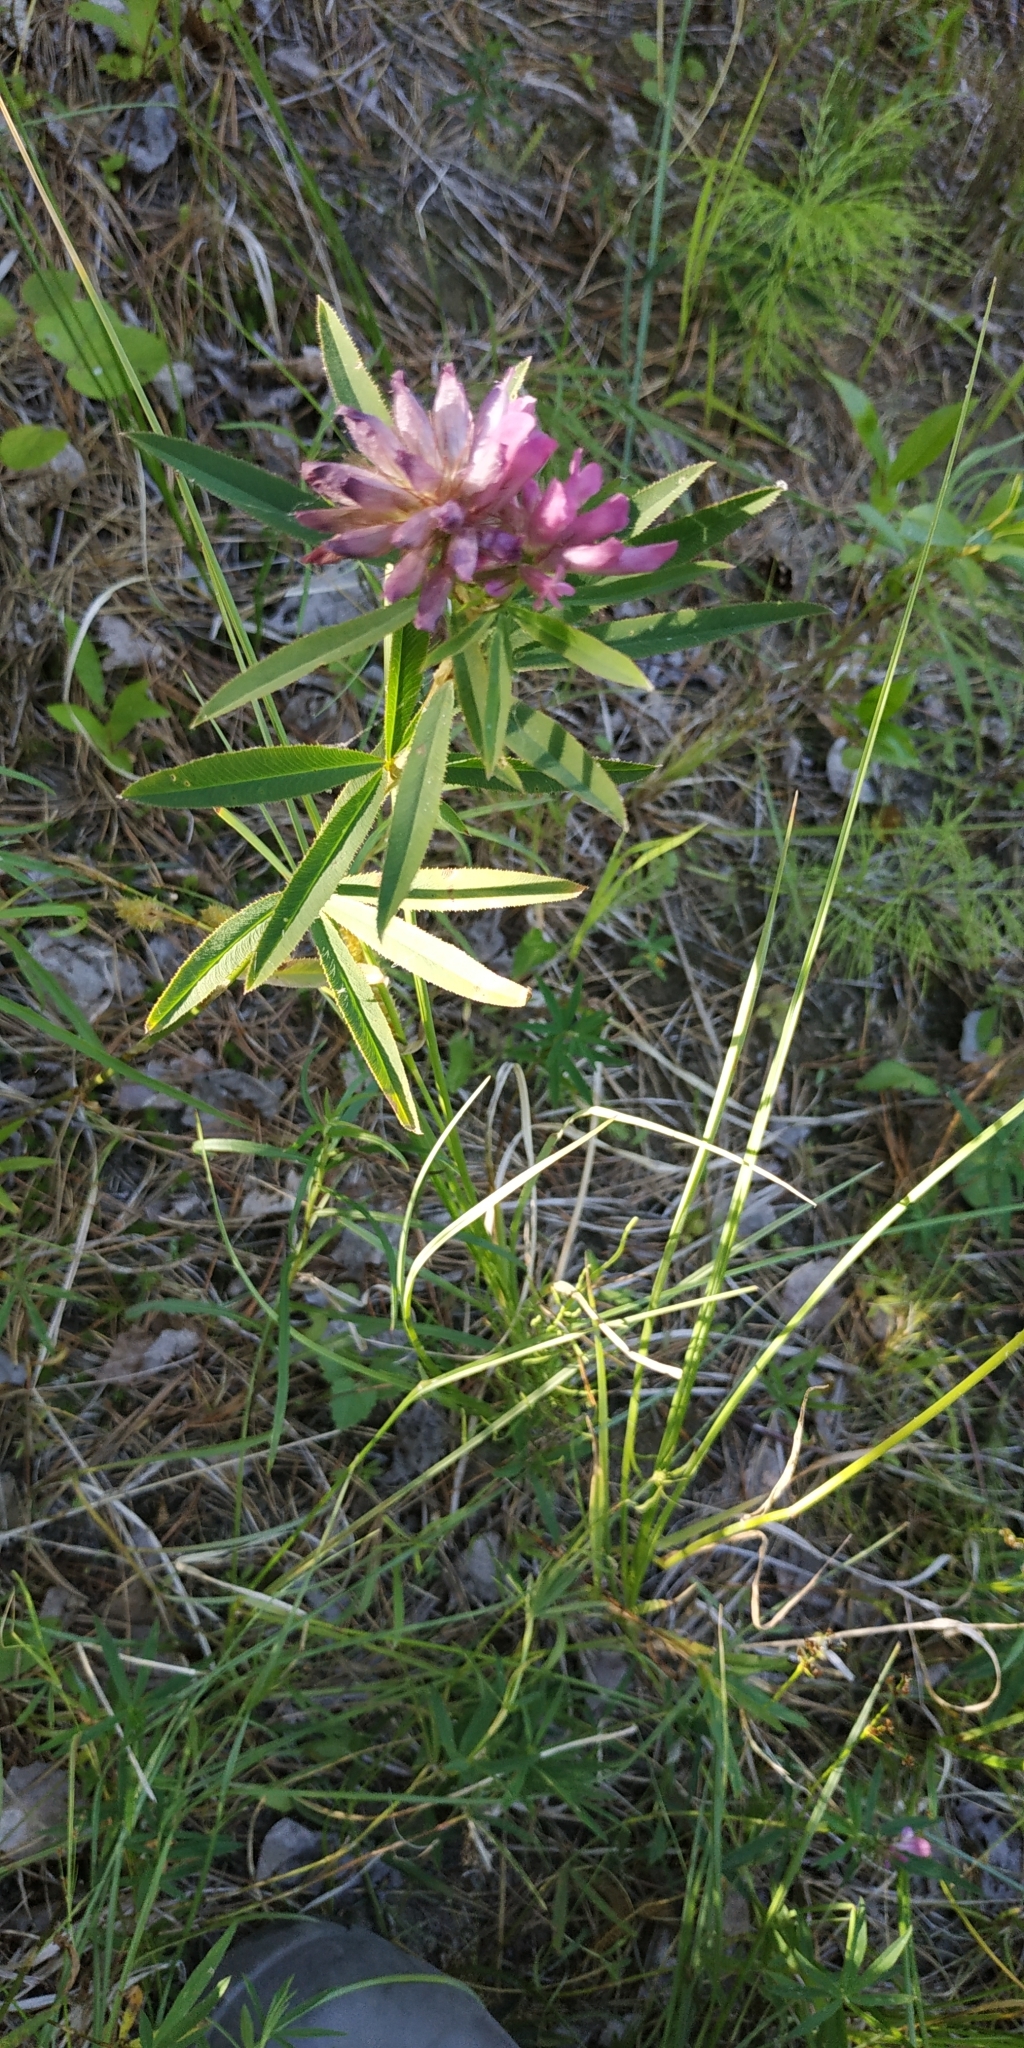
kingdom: Plantae
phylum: Tracheophyta
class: Magnoliopsida
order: Fabales
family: Fabaceae
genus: Trifolium
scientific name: Trifolium lupinaster
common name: Lupine clover
